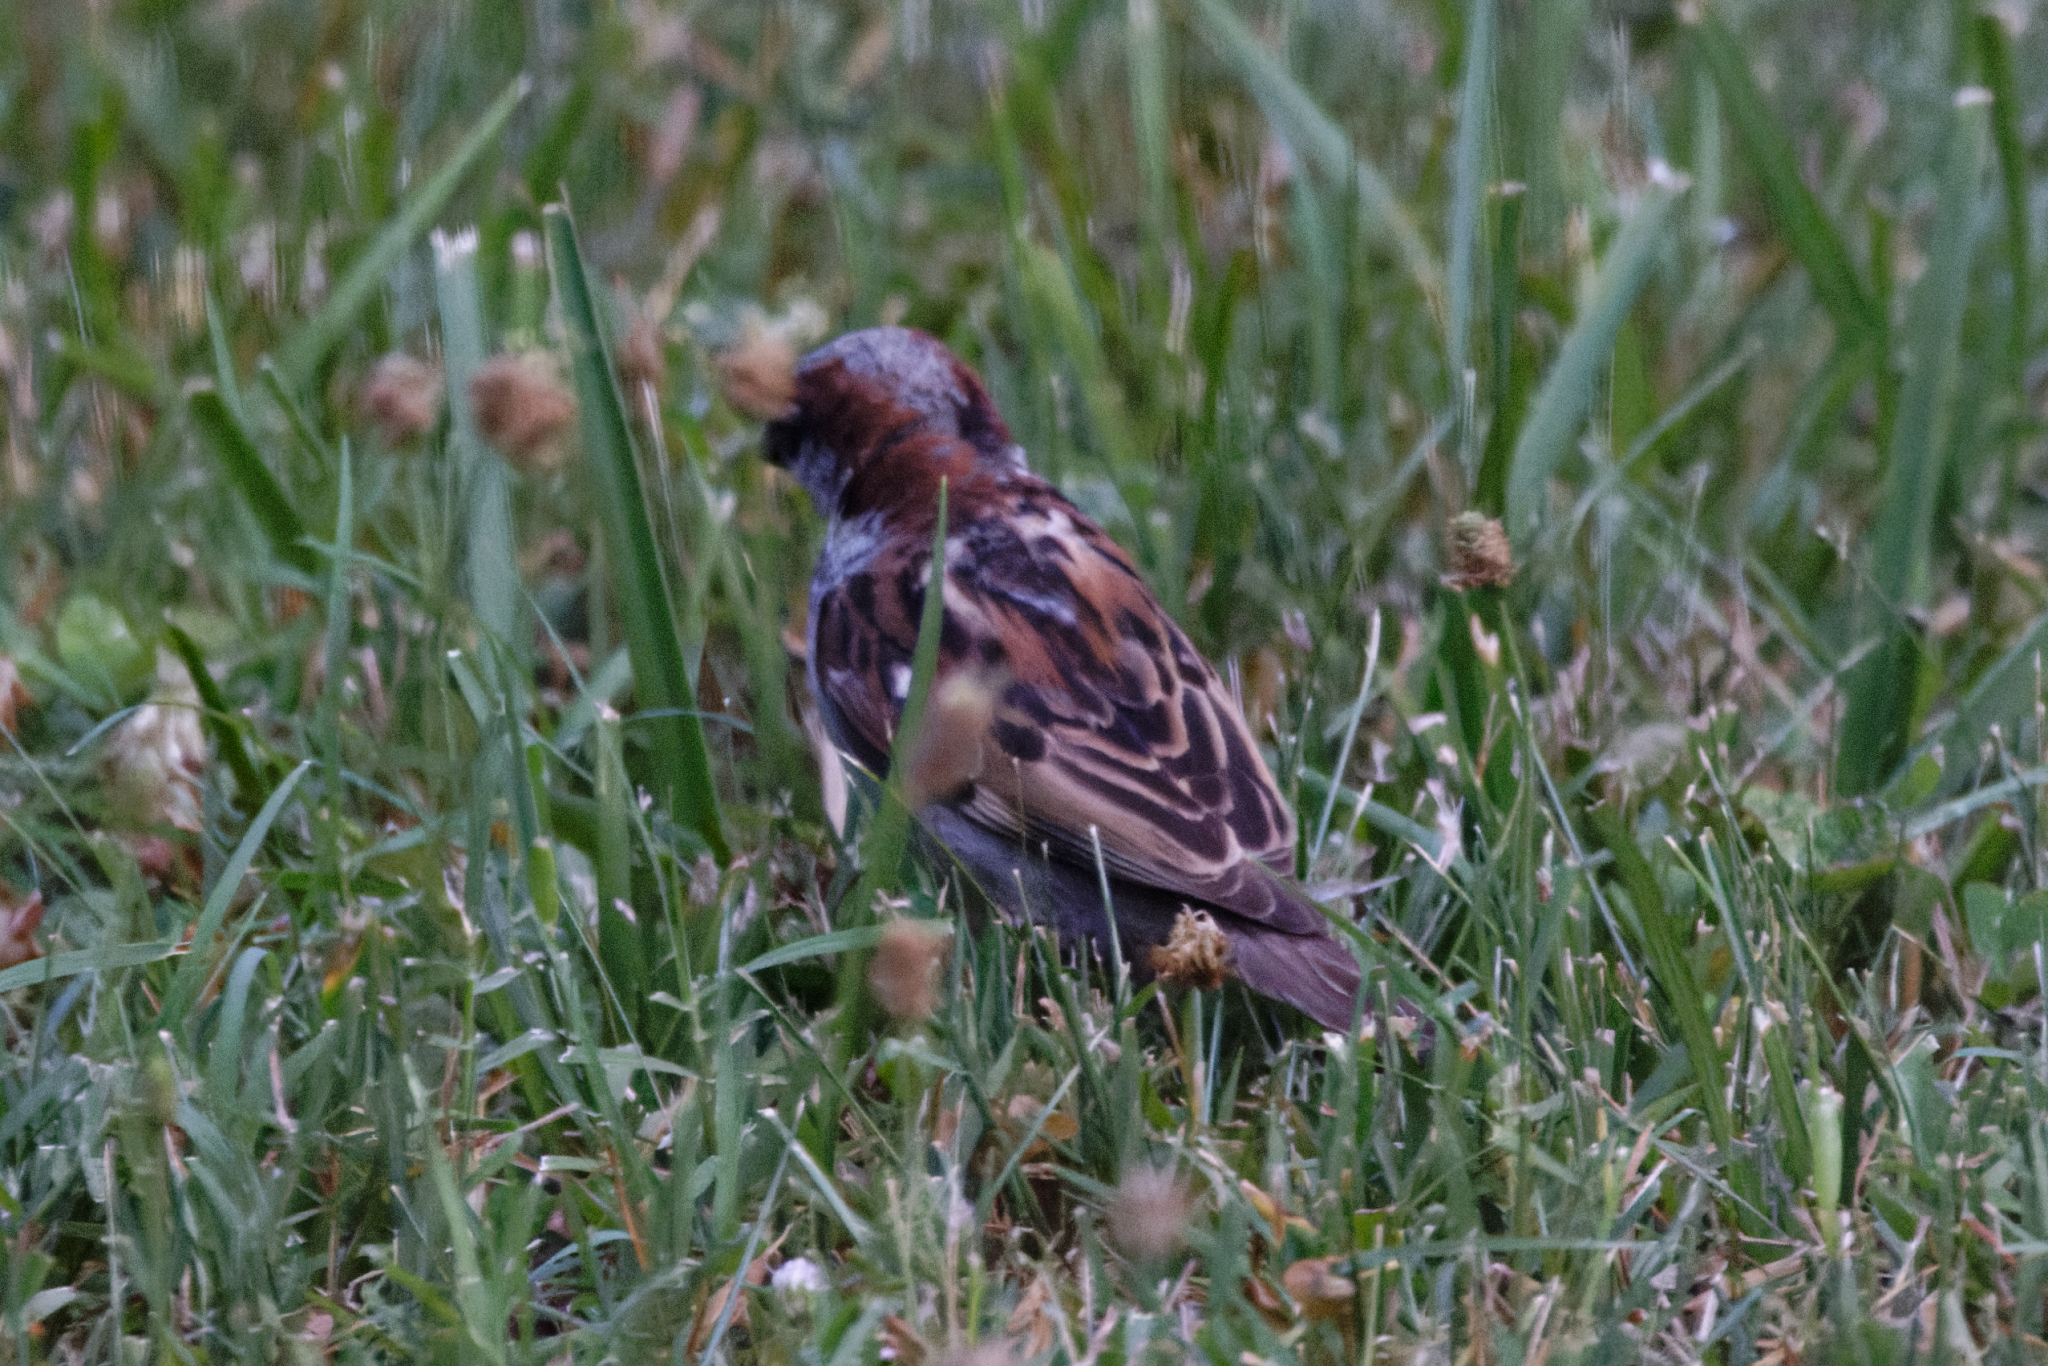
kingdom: Animalia
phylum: Chordata
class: Aves
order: Passeriformes
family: Passeridae
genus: Passer
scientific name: Passer domesticus
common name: House sparrow
